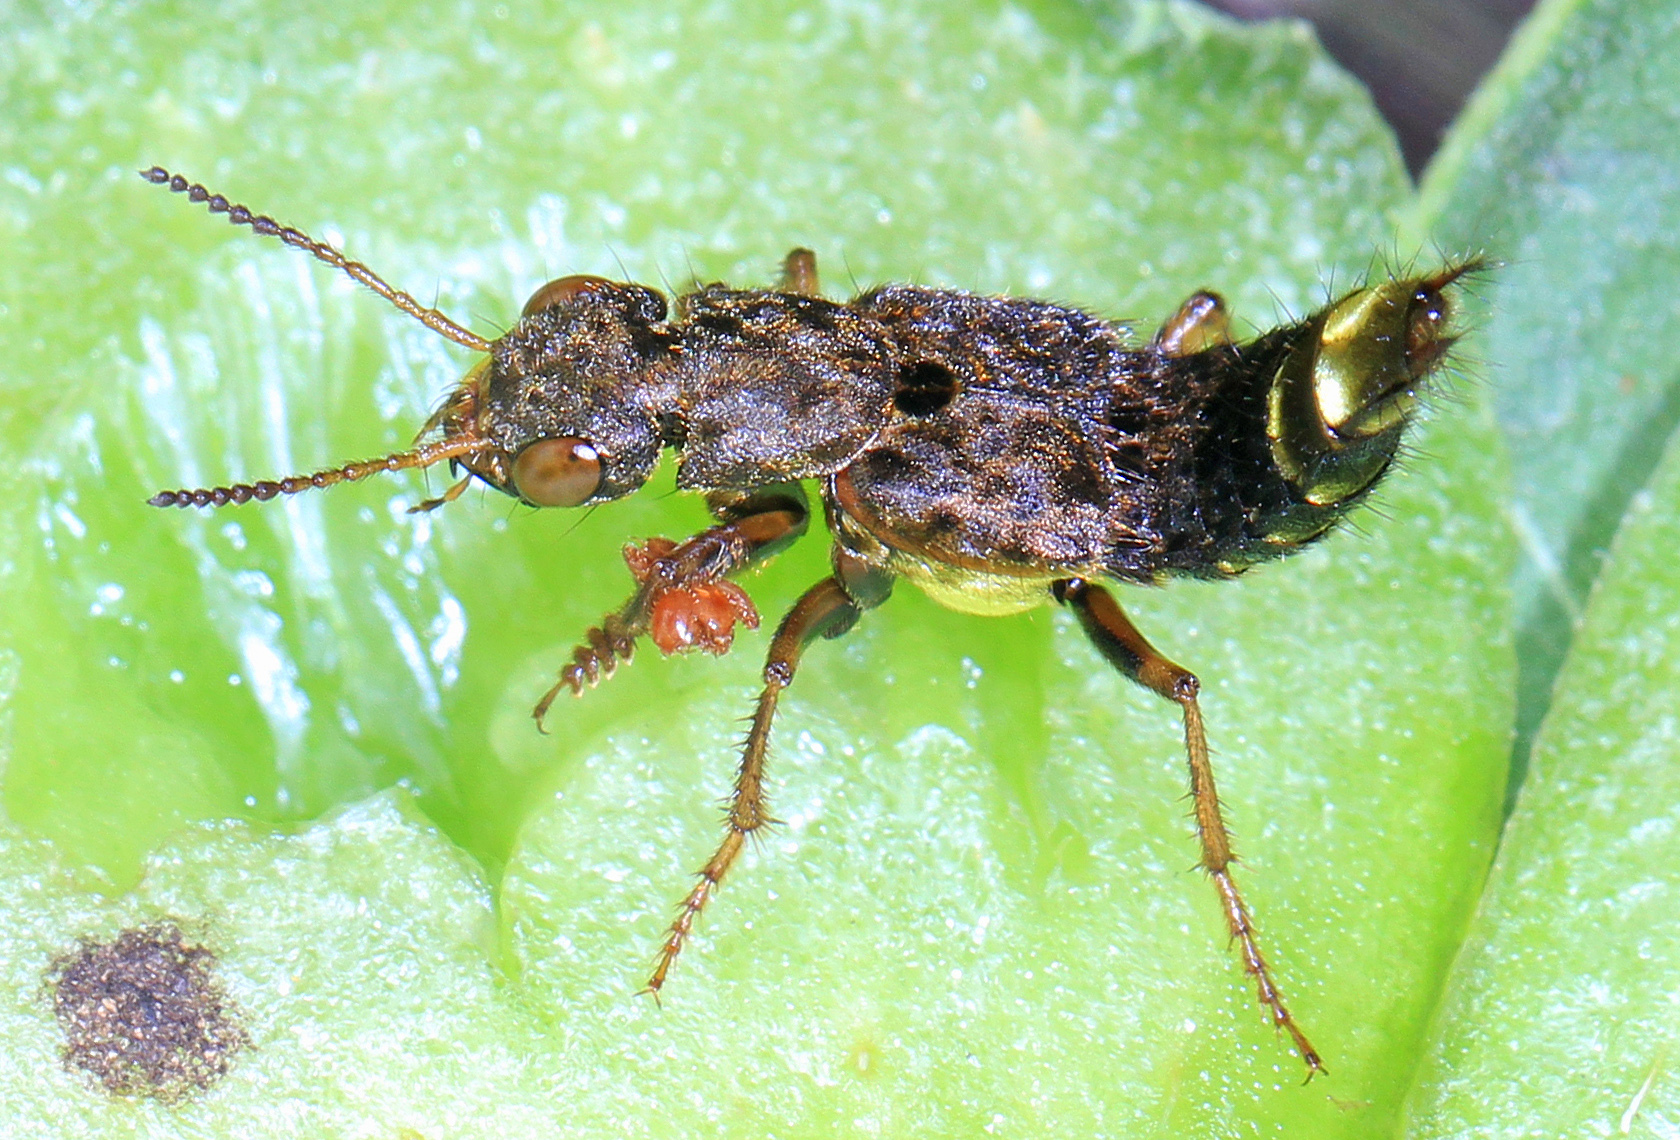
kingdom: Animalia
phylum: Arthropoda
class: Insecta
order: Coleoptera
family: Staphylinidae
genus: Ontholestes
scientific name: Ontholestes cingulatus
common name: Gold-and-brown rove beetle
